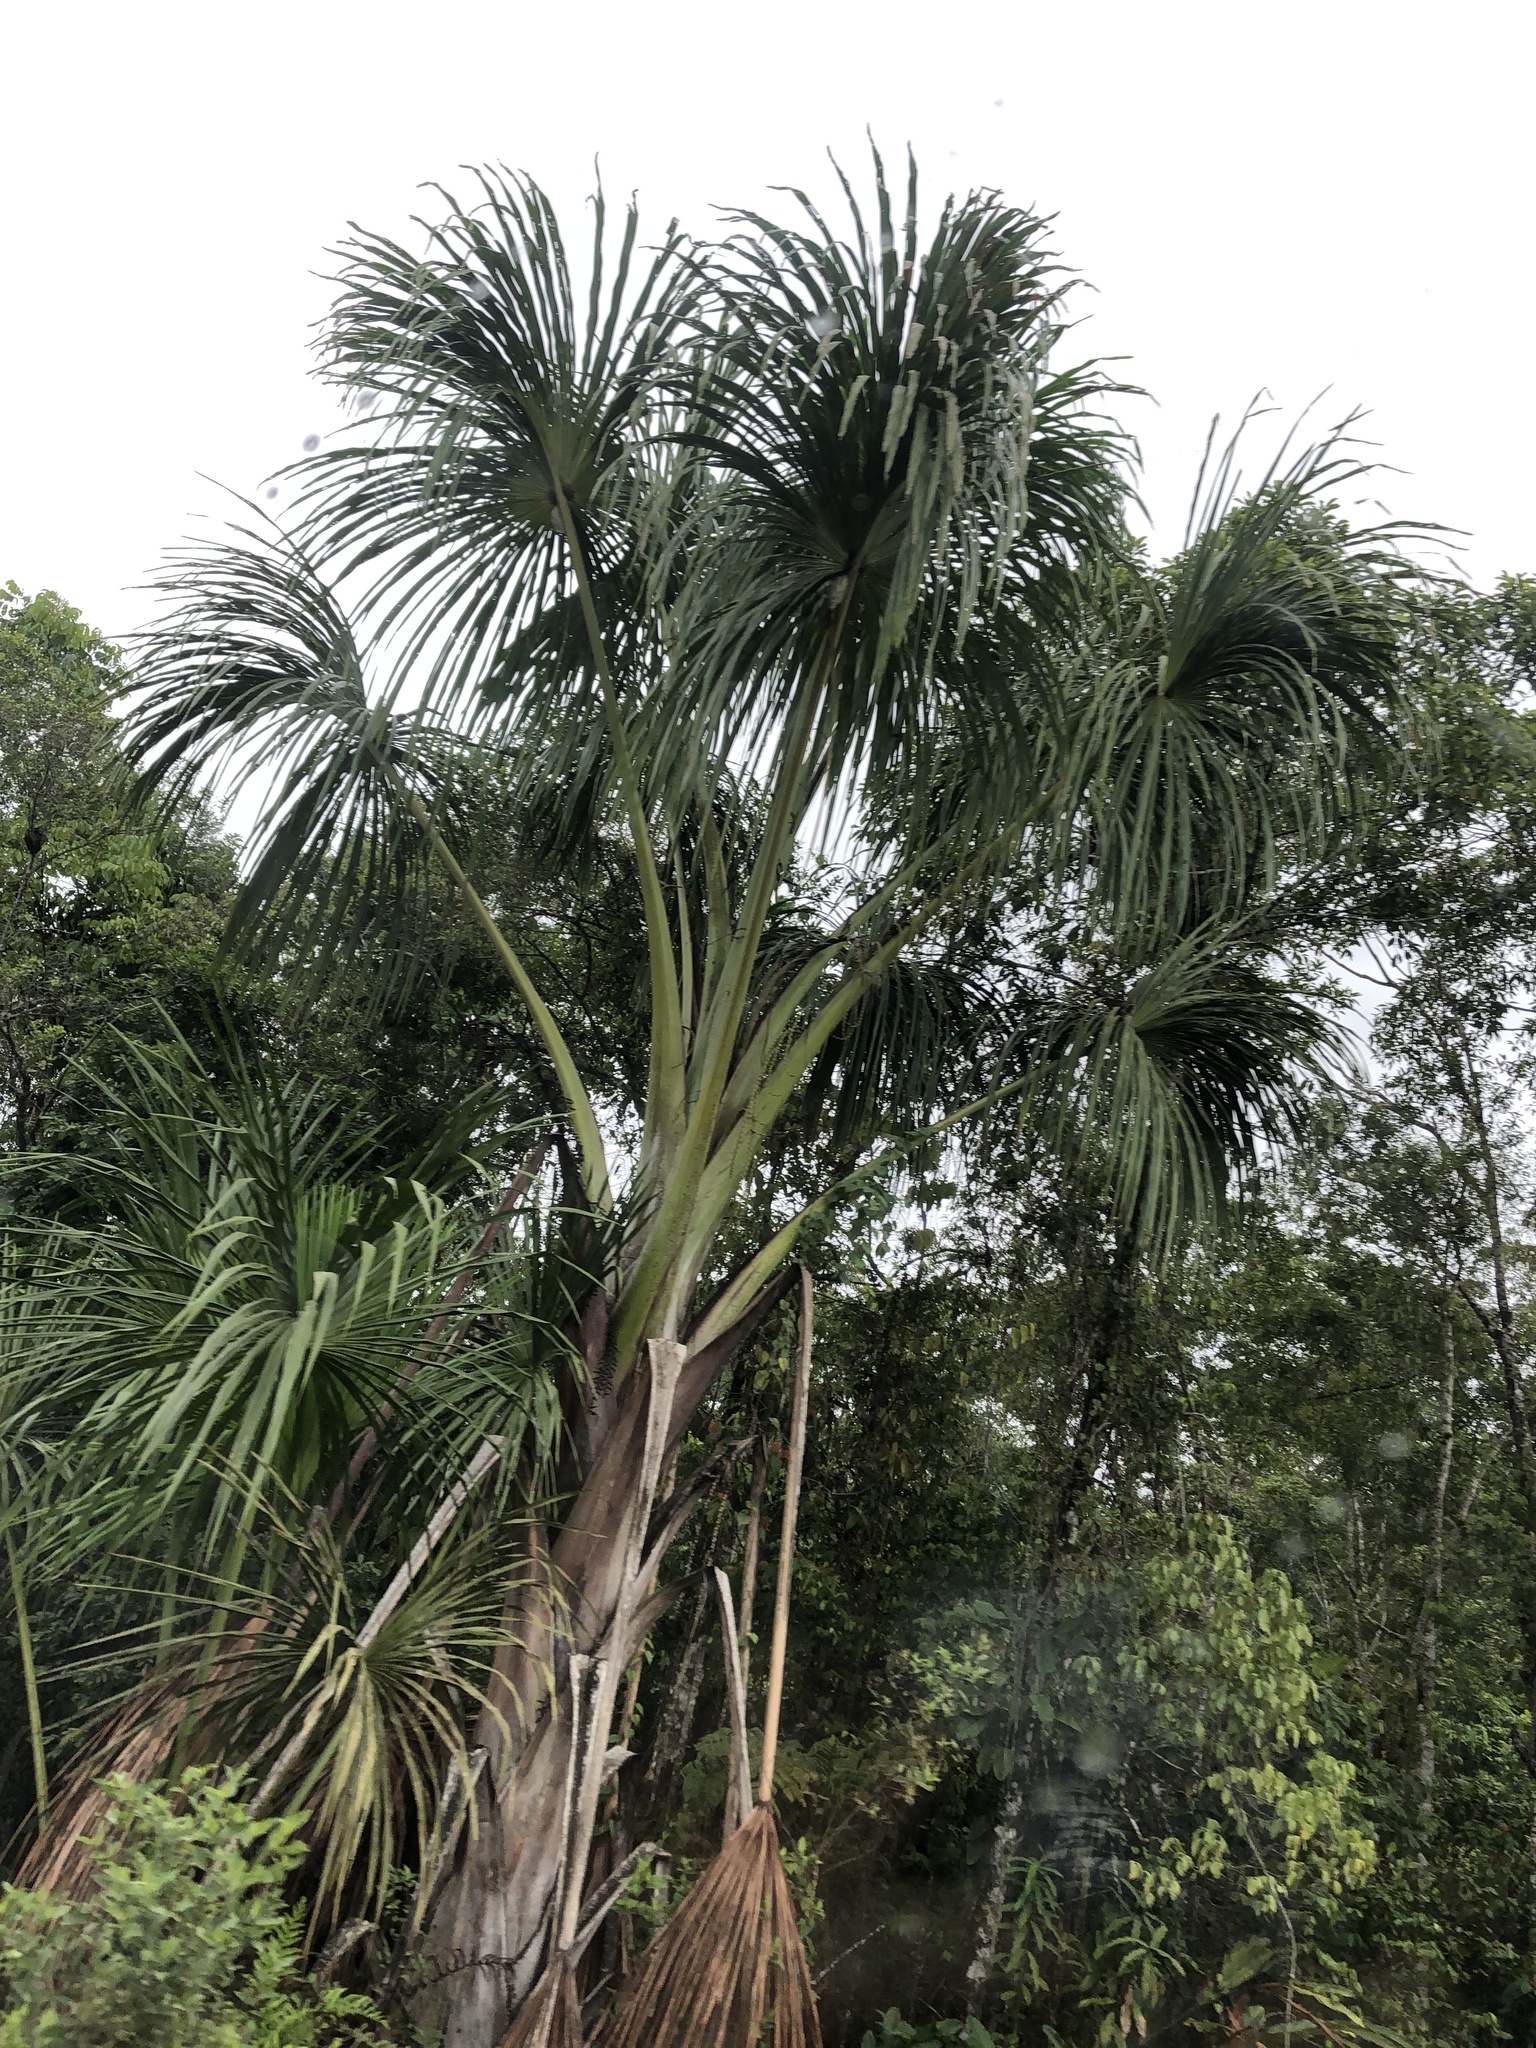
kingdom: Plantae
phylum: Tracheophyta
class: Liliopsida
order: Arecales
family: Arecaceae
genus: Mauritia
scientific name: Mauritia flexuosa
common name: Tree-of-life
